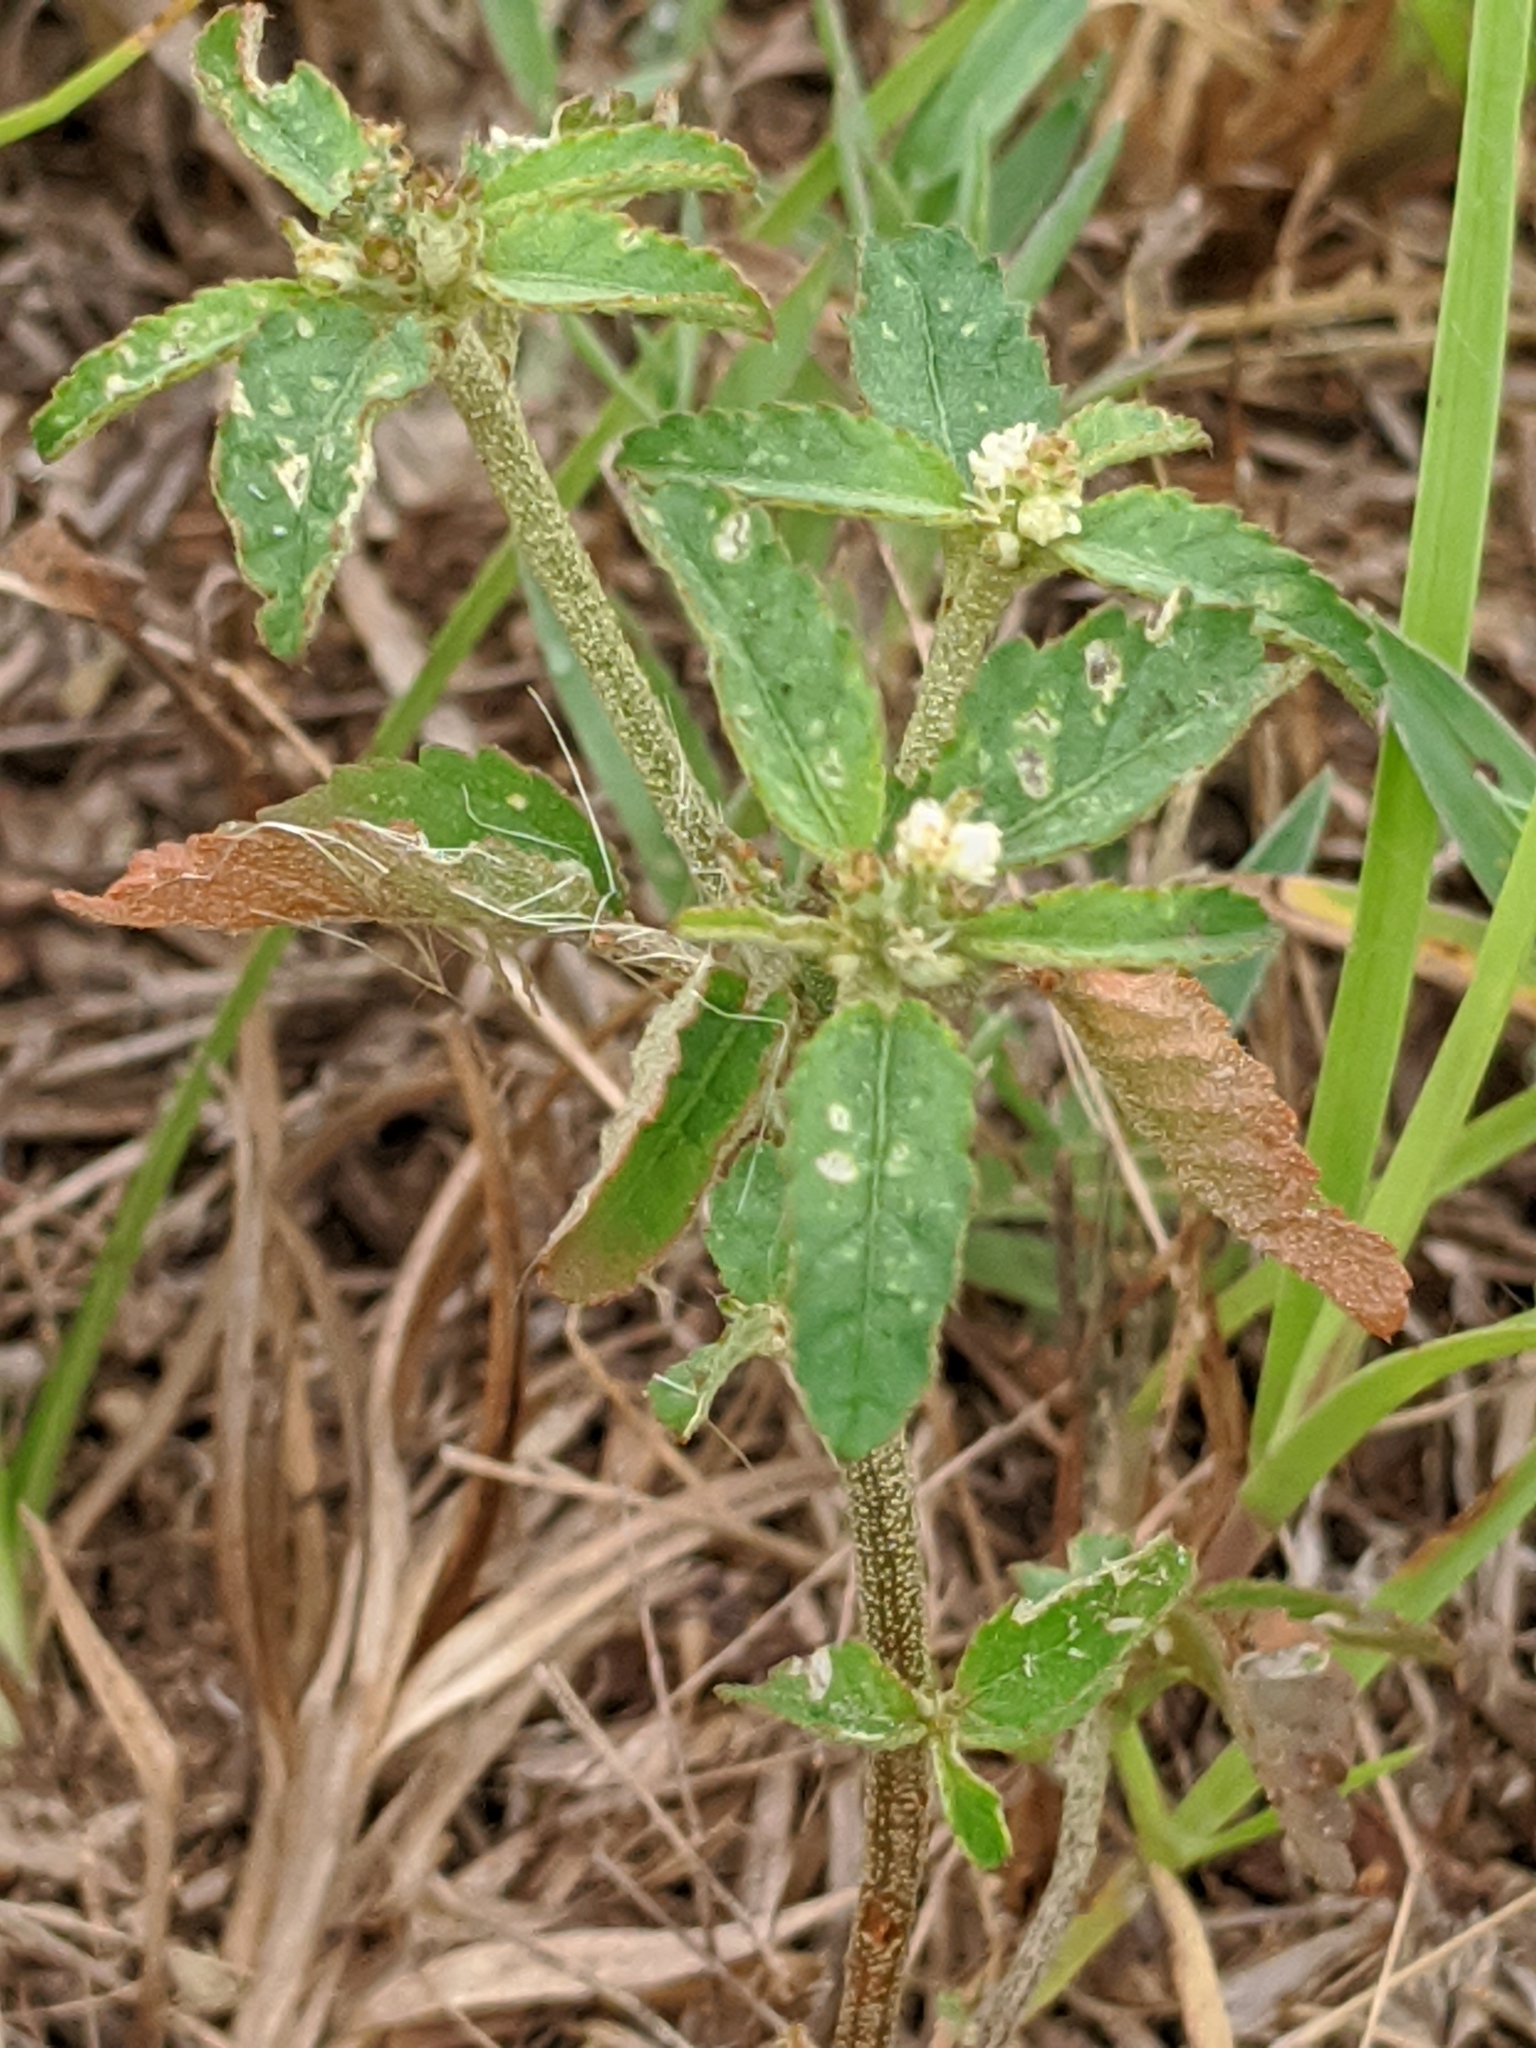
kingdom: Plantae
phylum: Tracheophyta
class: Magnoliopsida
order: Malpighiales
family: Euphorbiaceae
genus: Croton
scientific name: Croton glandulosus
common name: Tropic croton
